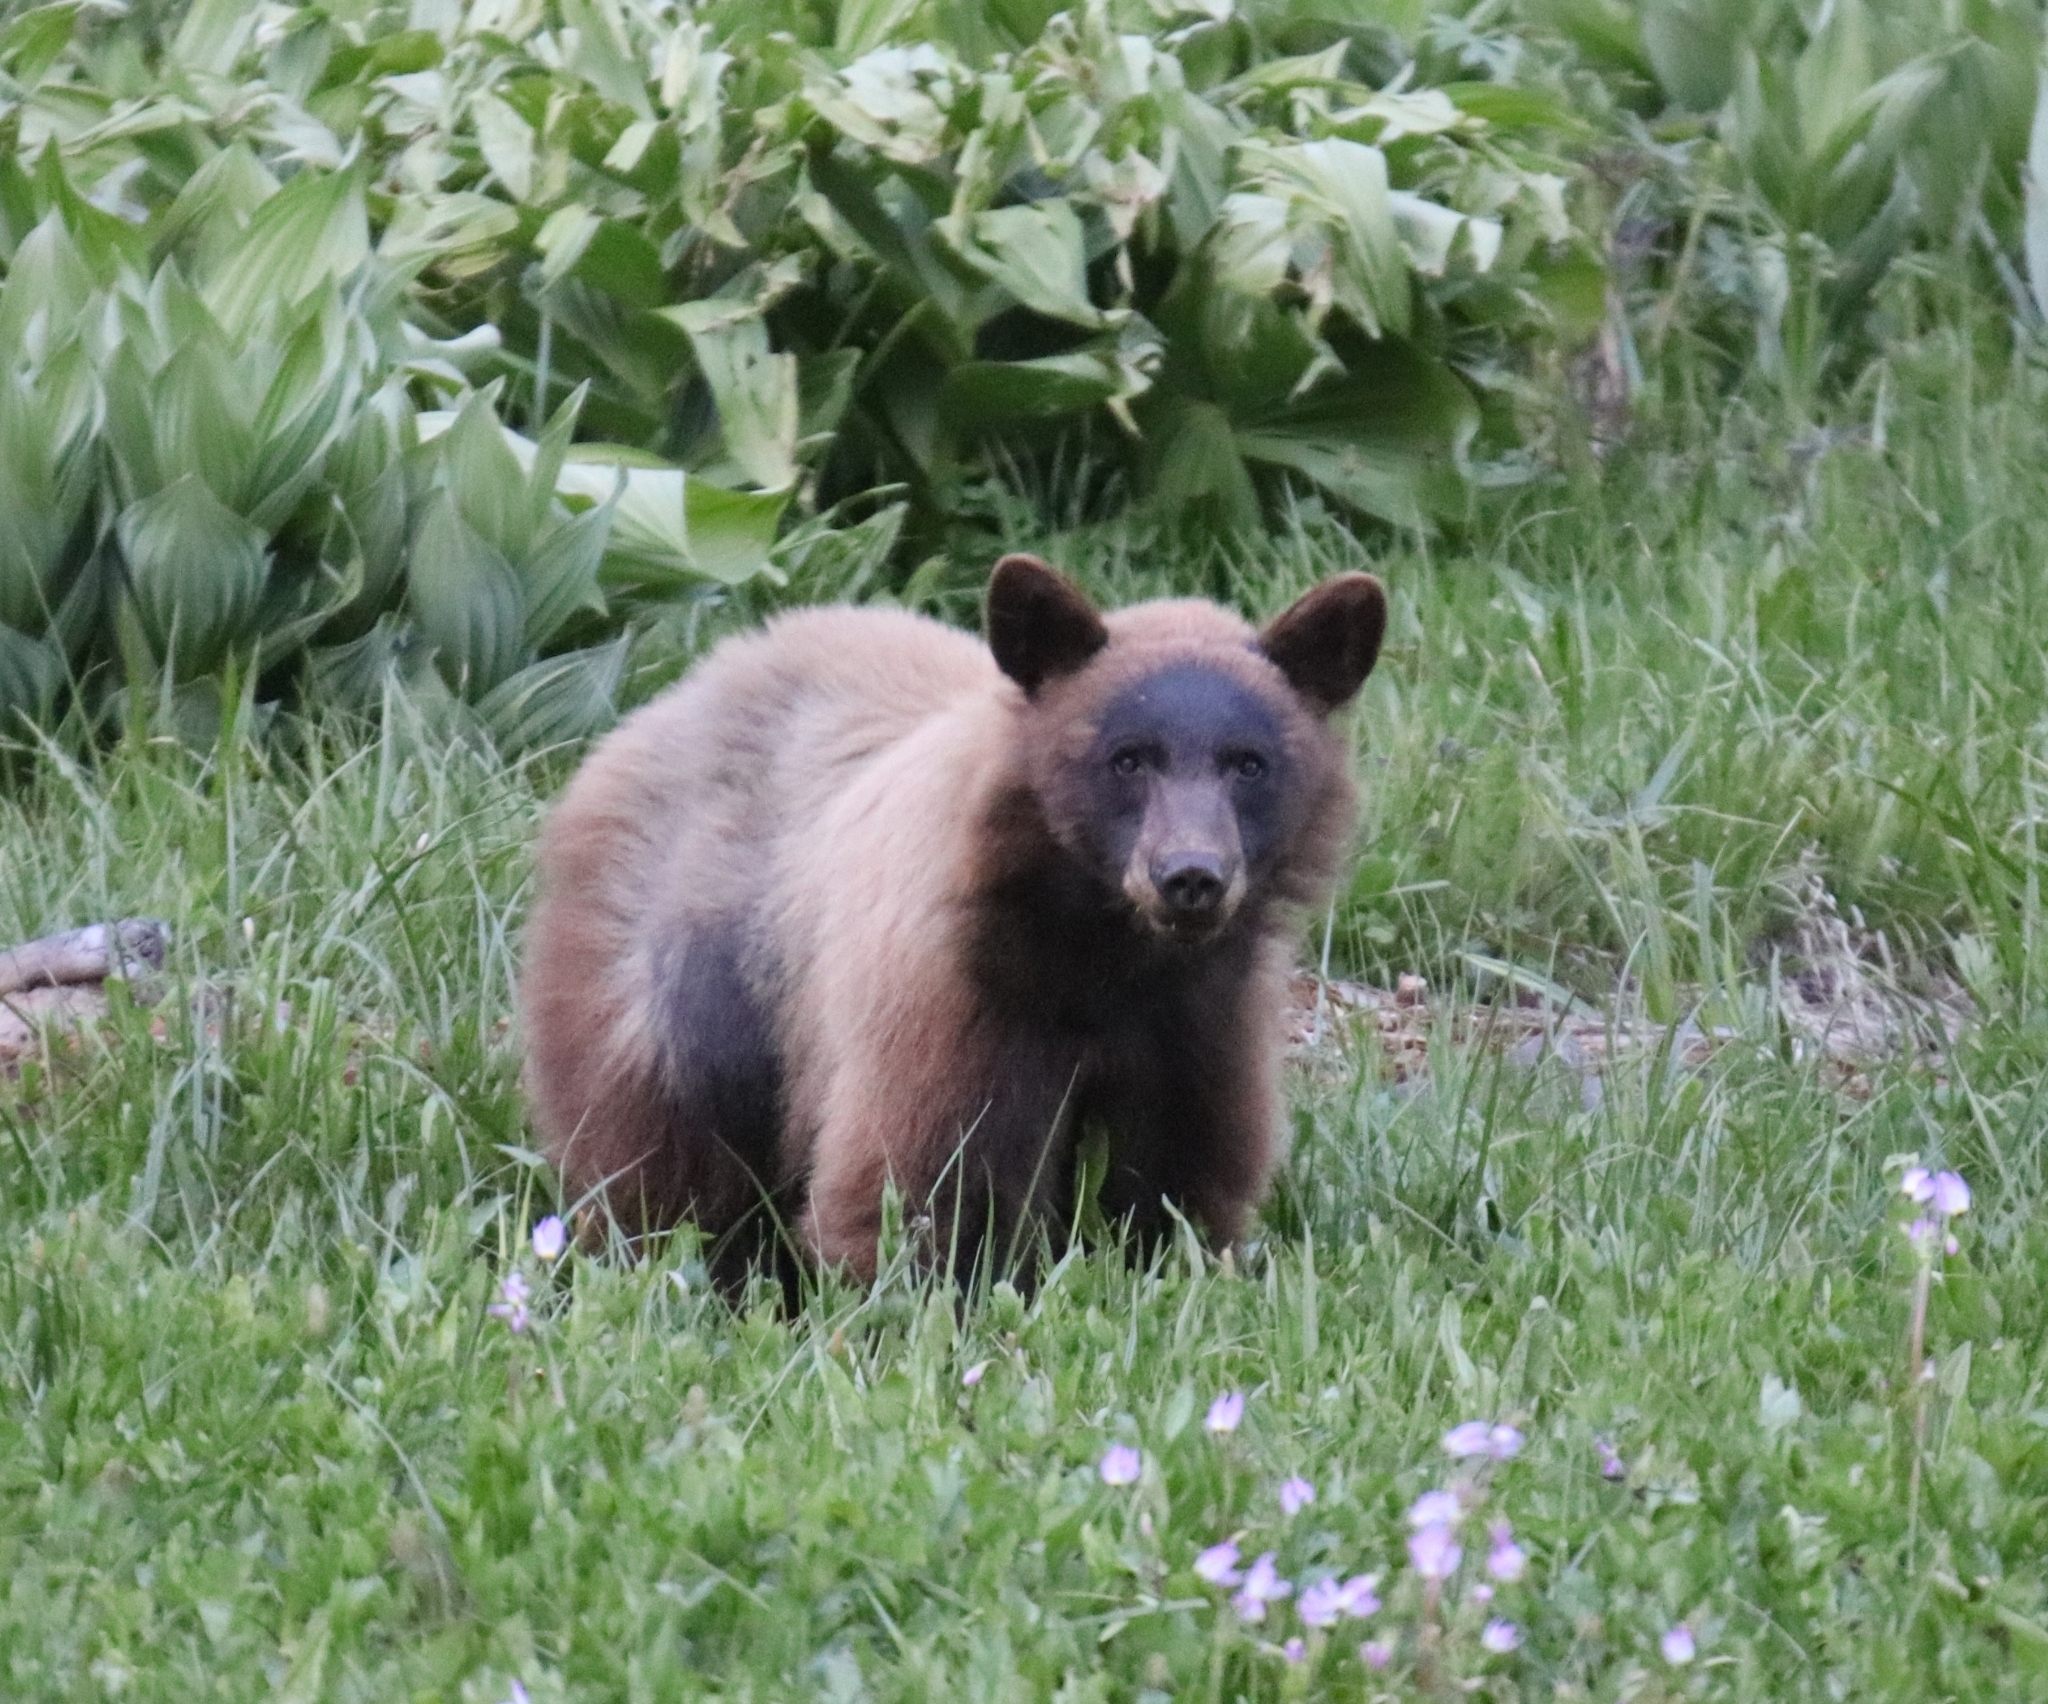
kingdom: Animalia
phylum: Chordata
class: Mammalia
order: Carnivora
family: Ursidae
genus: Ursus
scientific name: Ursus americanus
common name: American black bear
